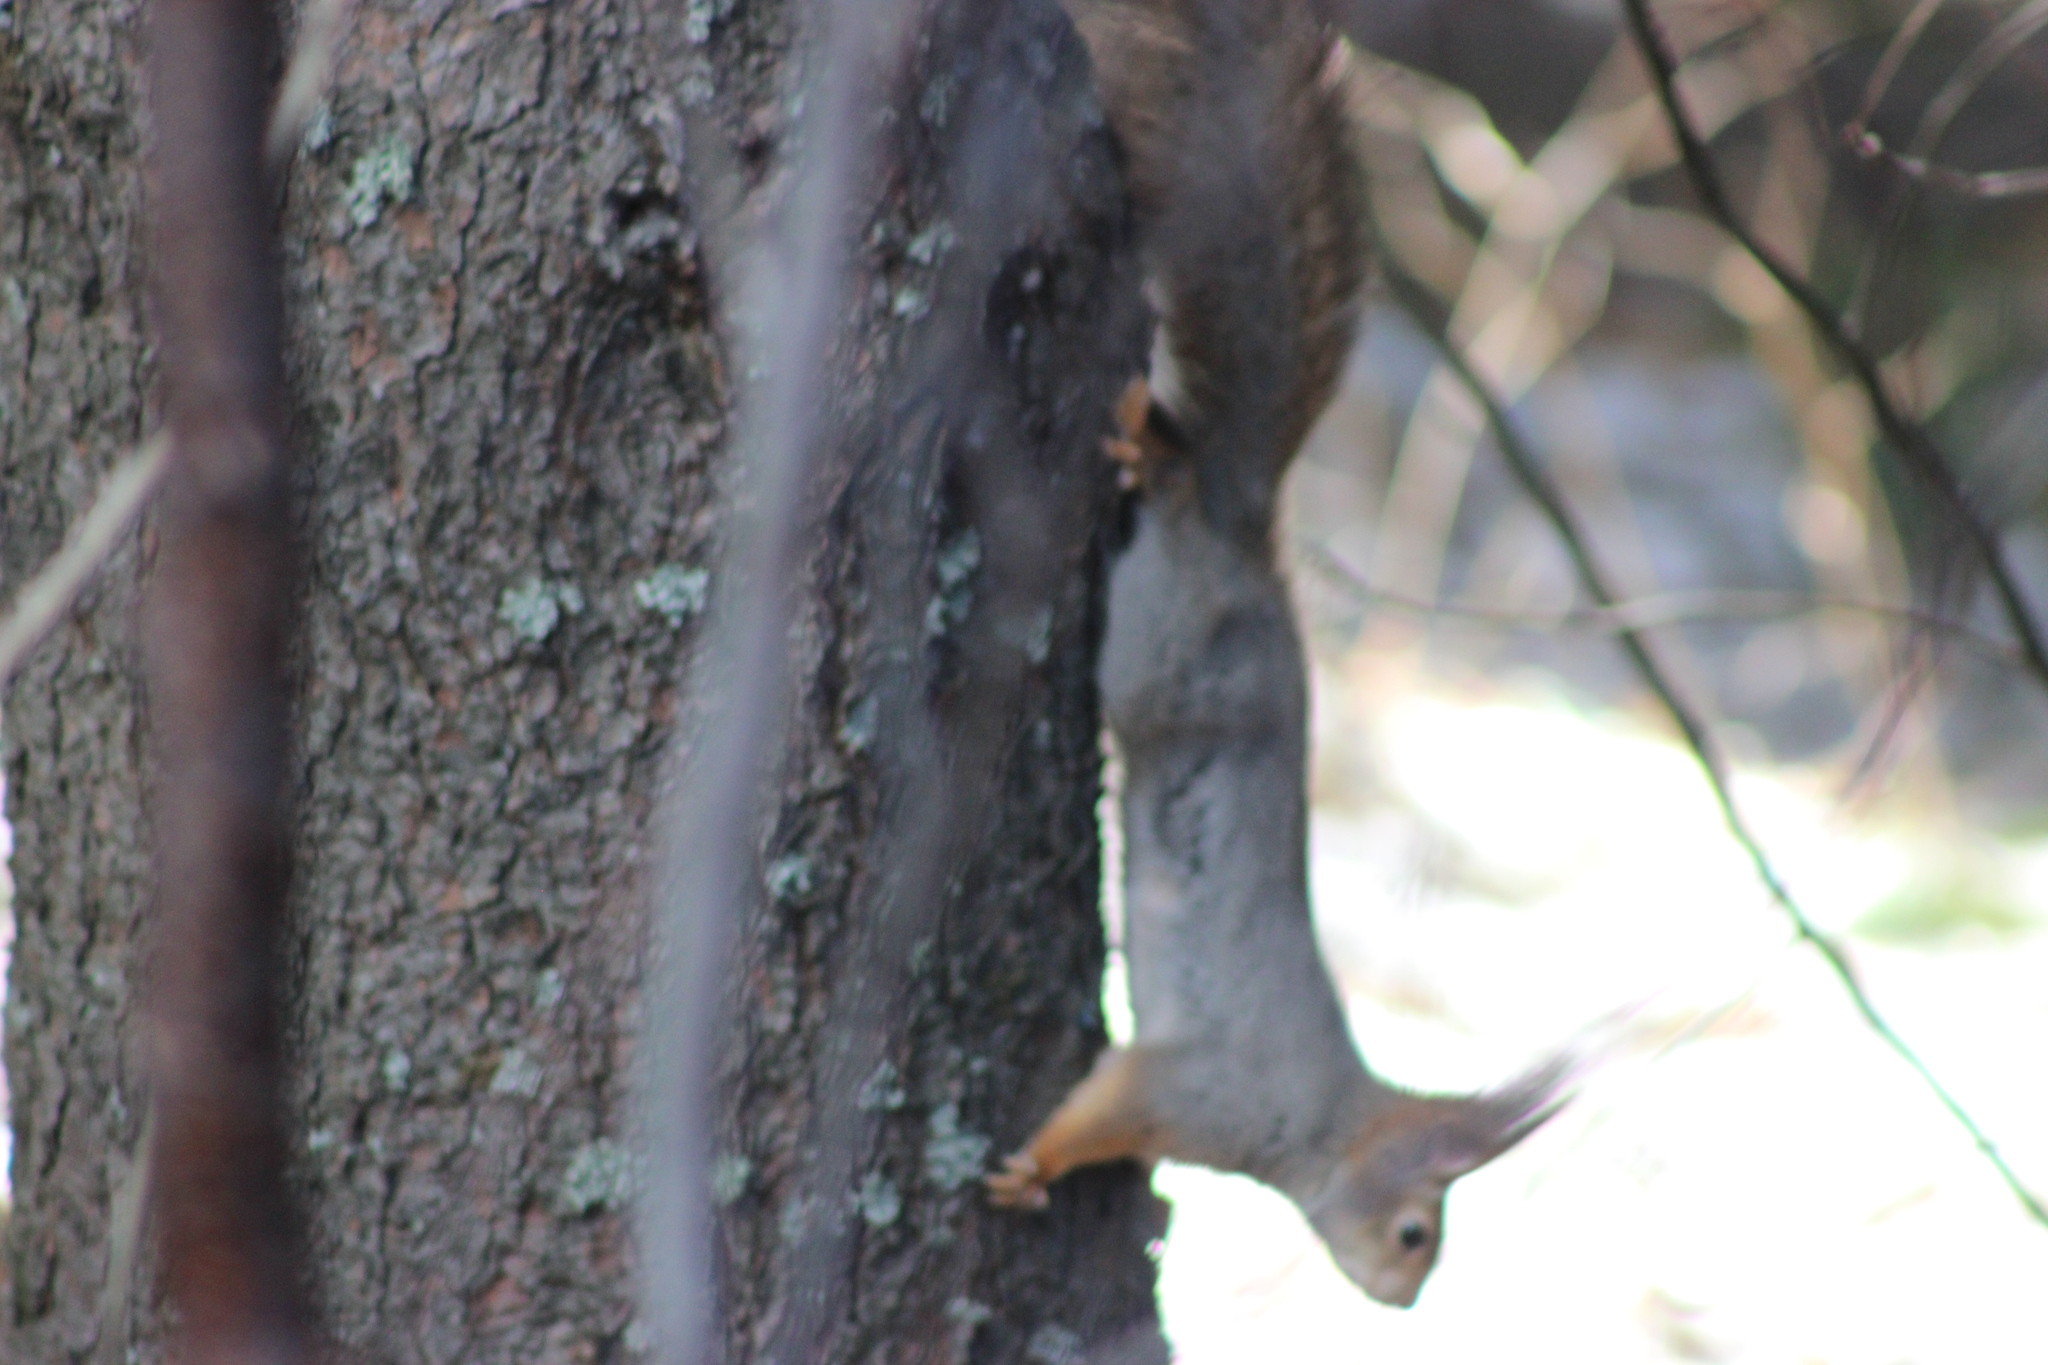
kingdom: Animalia
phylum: Chordata
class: Mammalia
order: Rodentia
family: Sciuridae
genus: Sciurus
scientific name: Sciurus vulgaris
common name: Eurasian red squirrel
